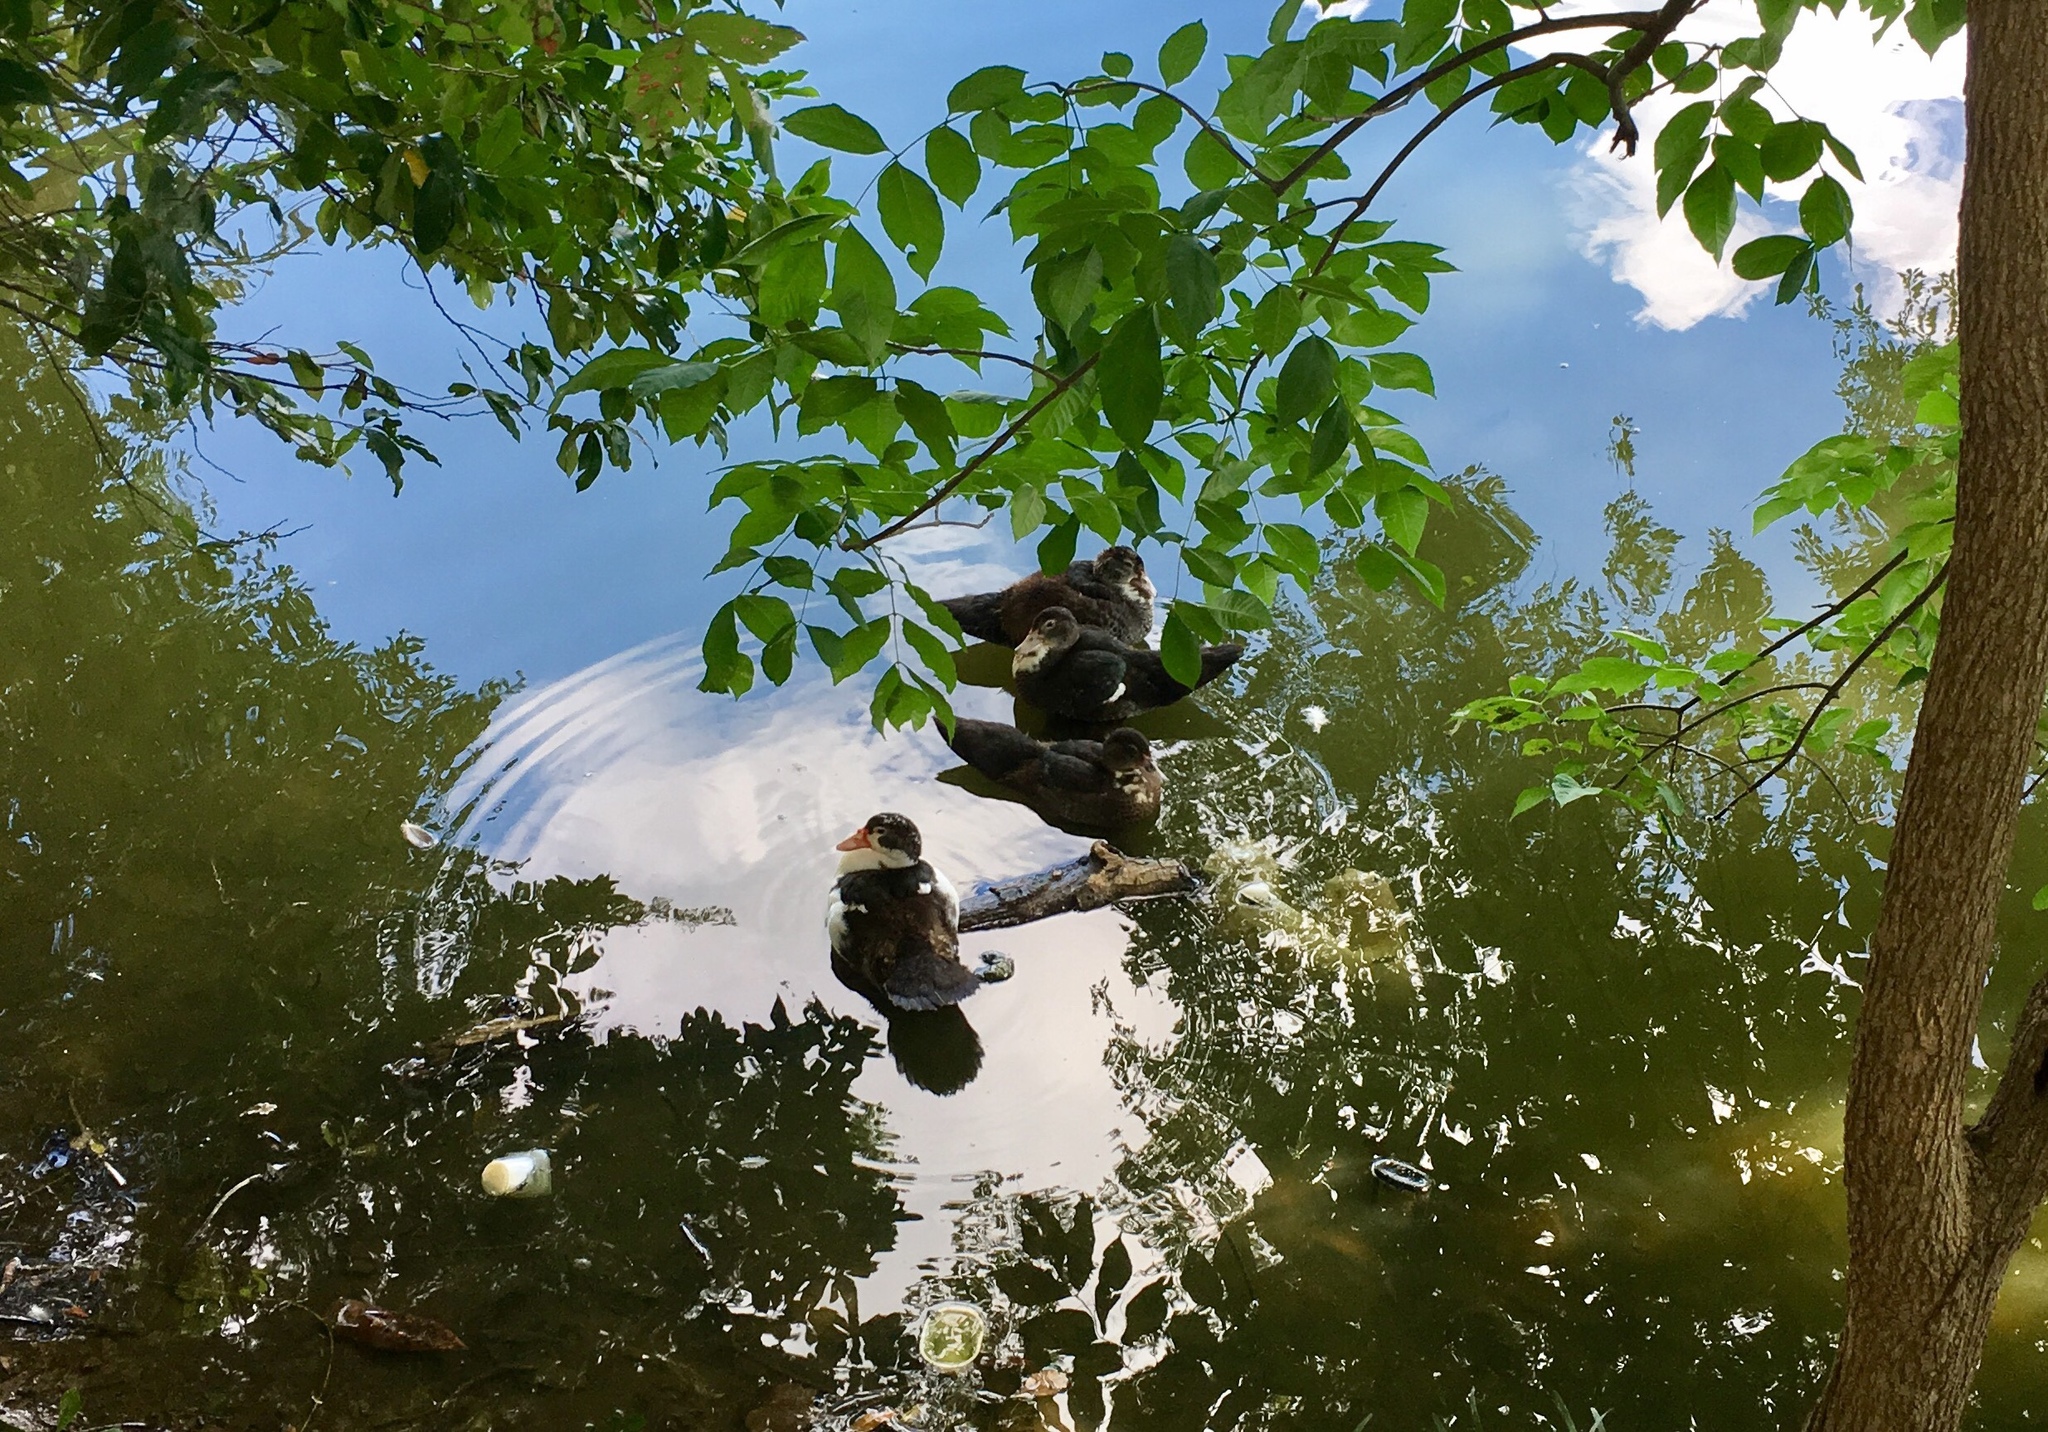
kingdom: Animalia
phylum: Chordata
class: Aves
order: Anseriformes
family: Anatidae
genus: Cairina
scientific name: Cairina moschata
